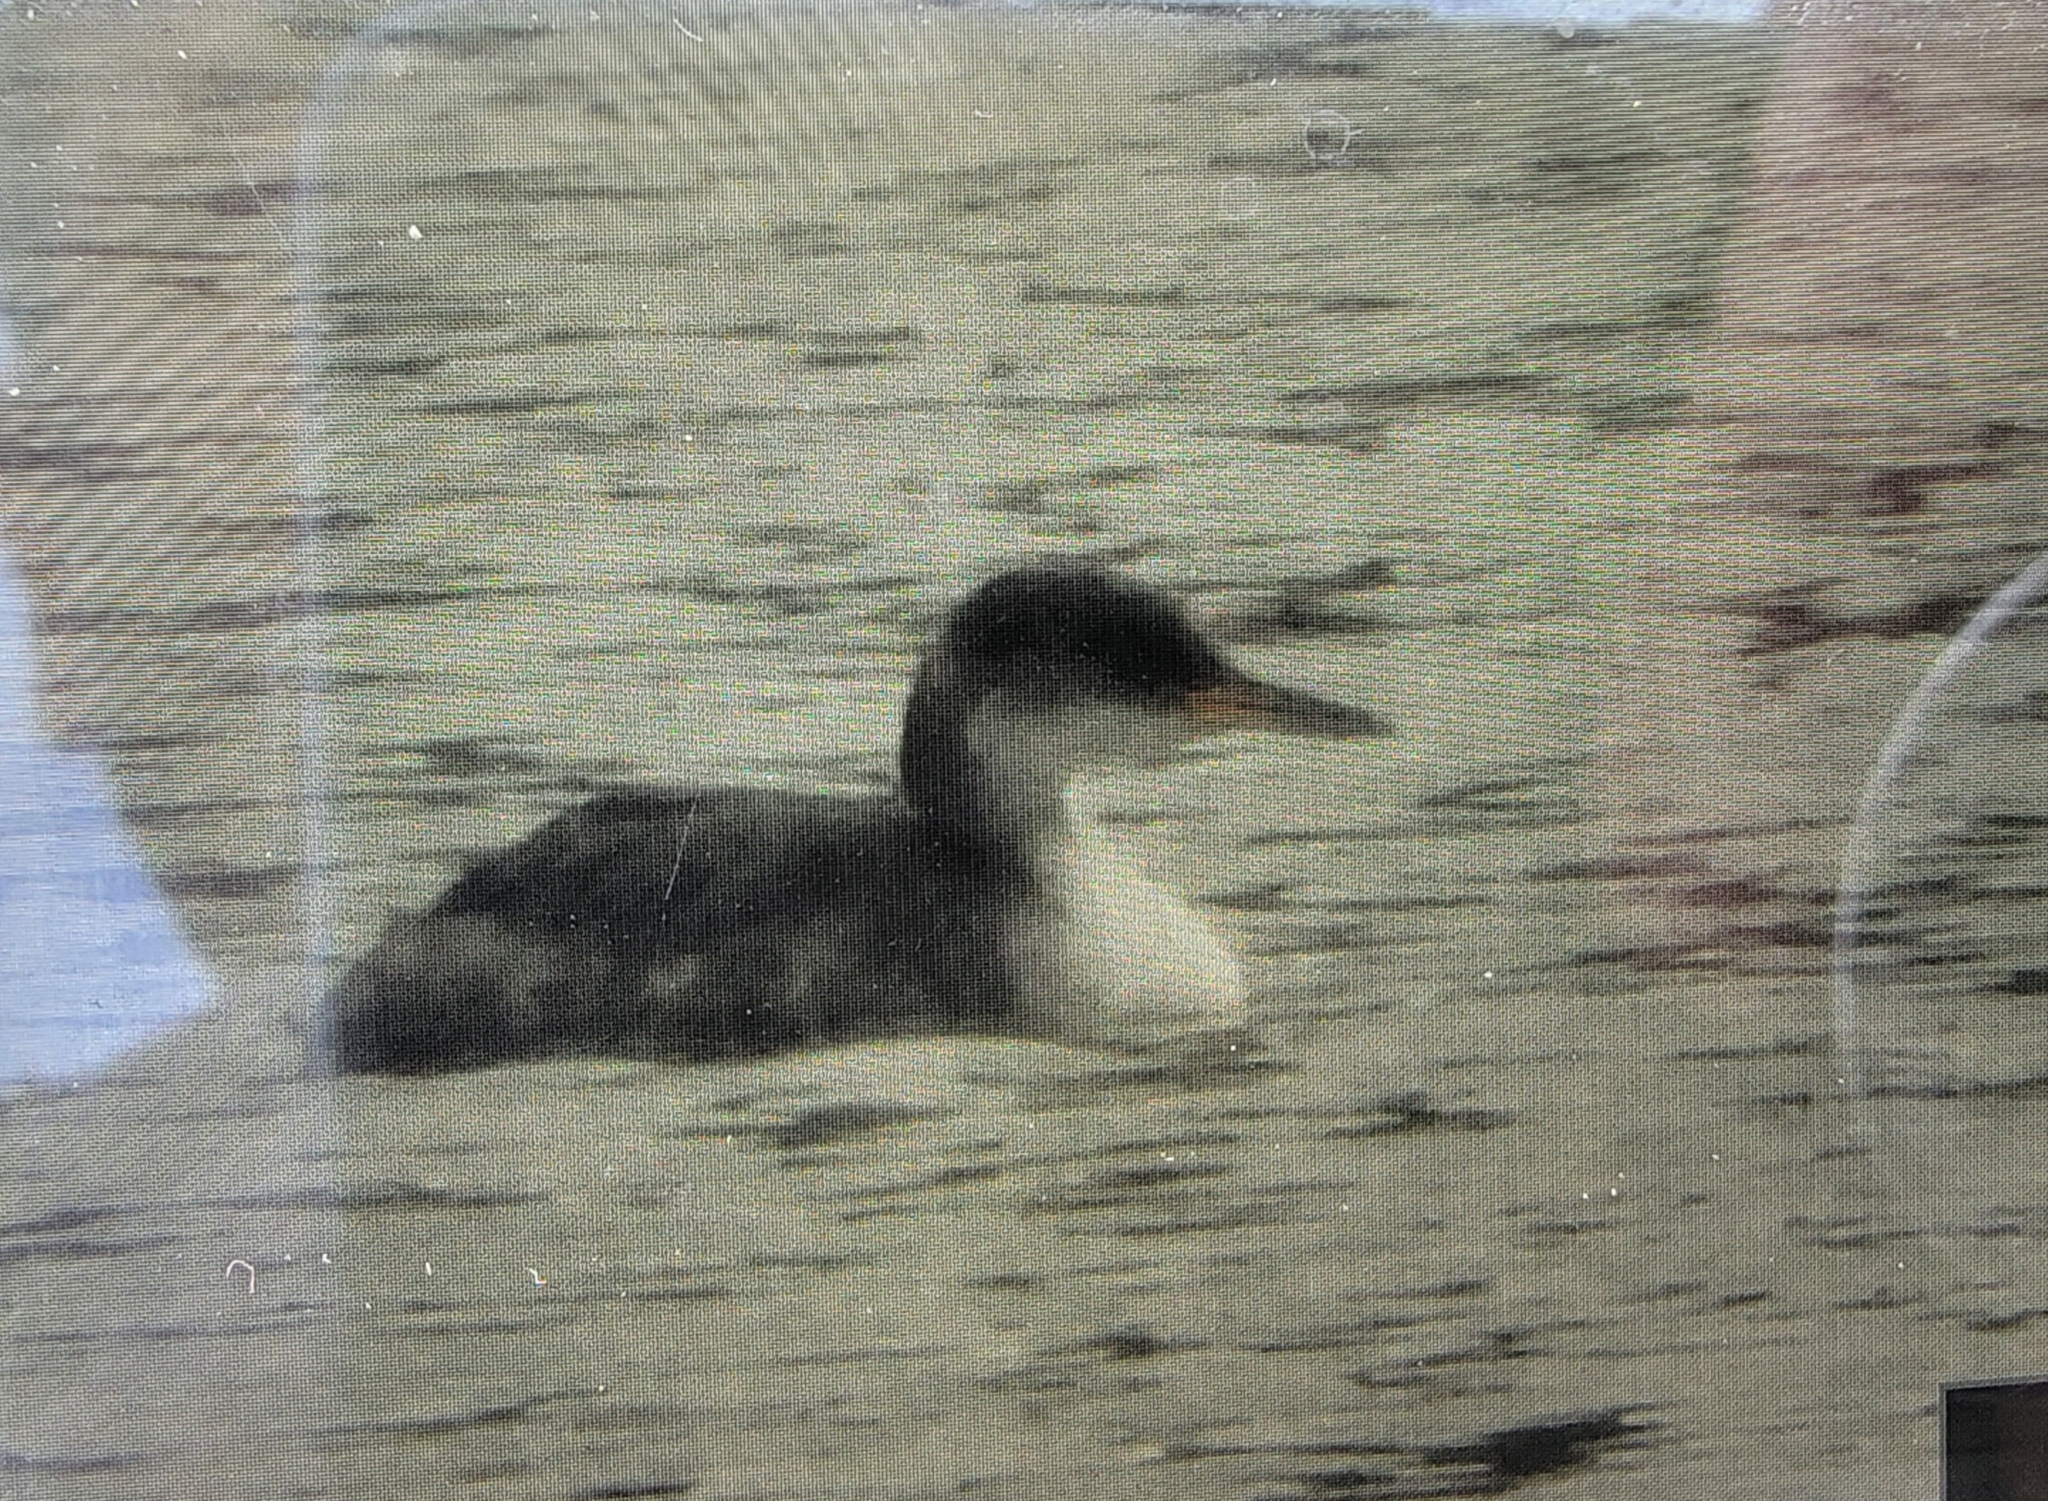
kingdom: Animalia
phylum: Chordata
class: Aves
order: Podicipediformes
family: Podicipedidae
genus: Podiceps
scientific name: Podiceps grisegena
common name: Red-necked grebe
